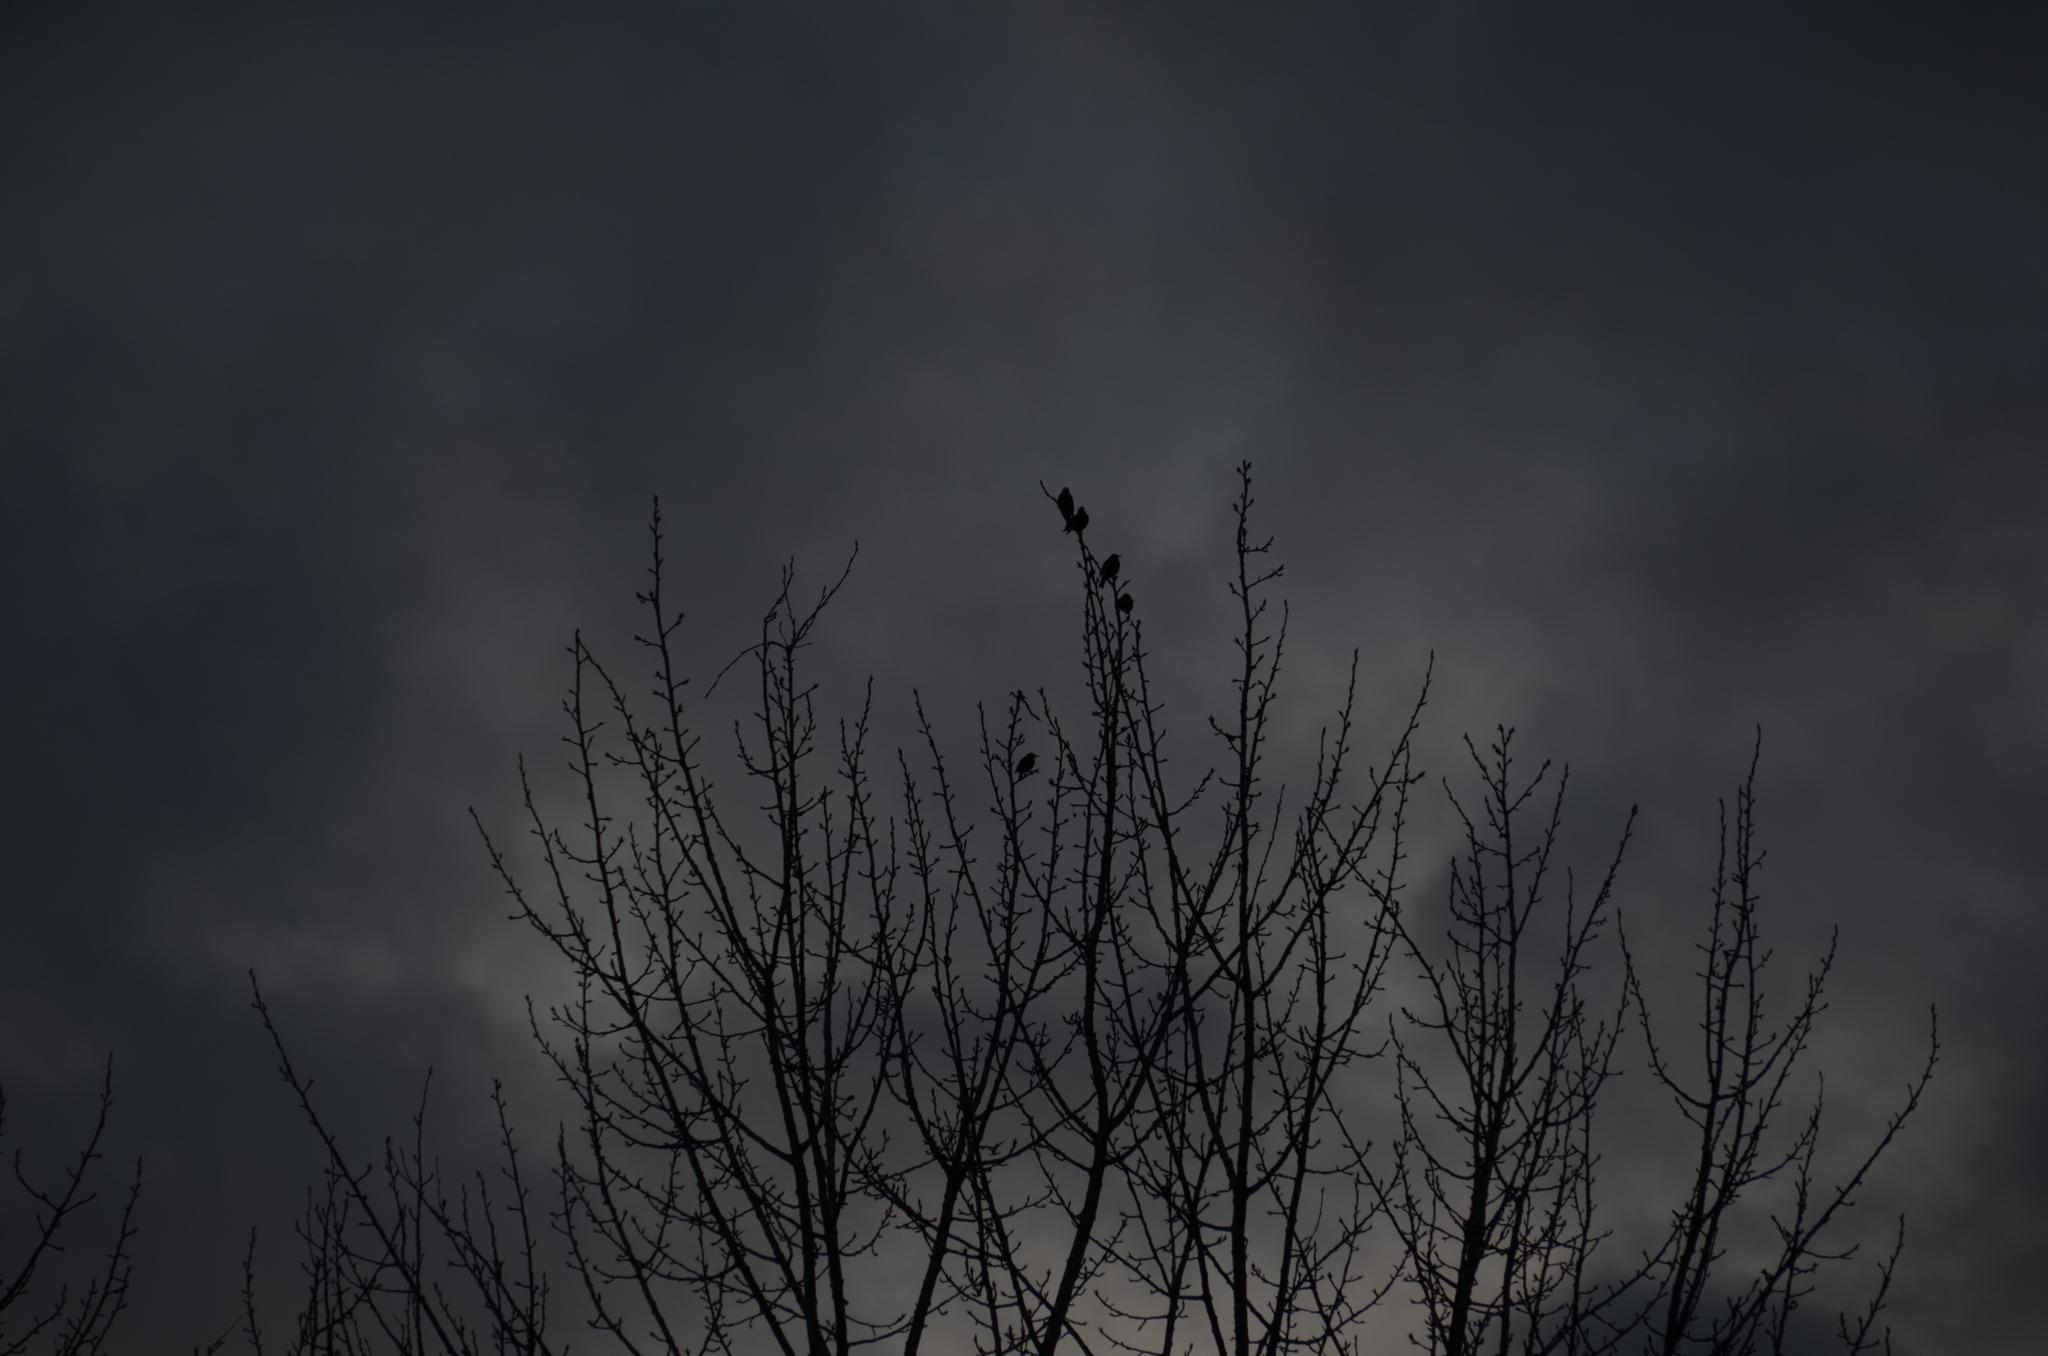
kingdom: Animalia
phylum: Chordata
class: Aves
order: Passeriformes
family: Sturnidae
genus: Sturnus
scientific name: Sturnus vulgaris
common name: Common starling
